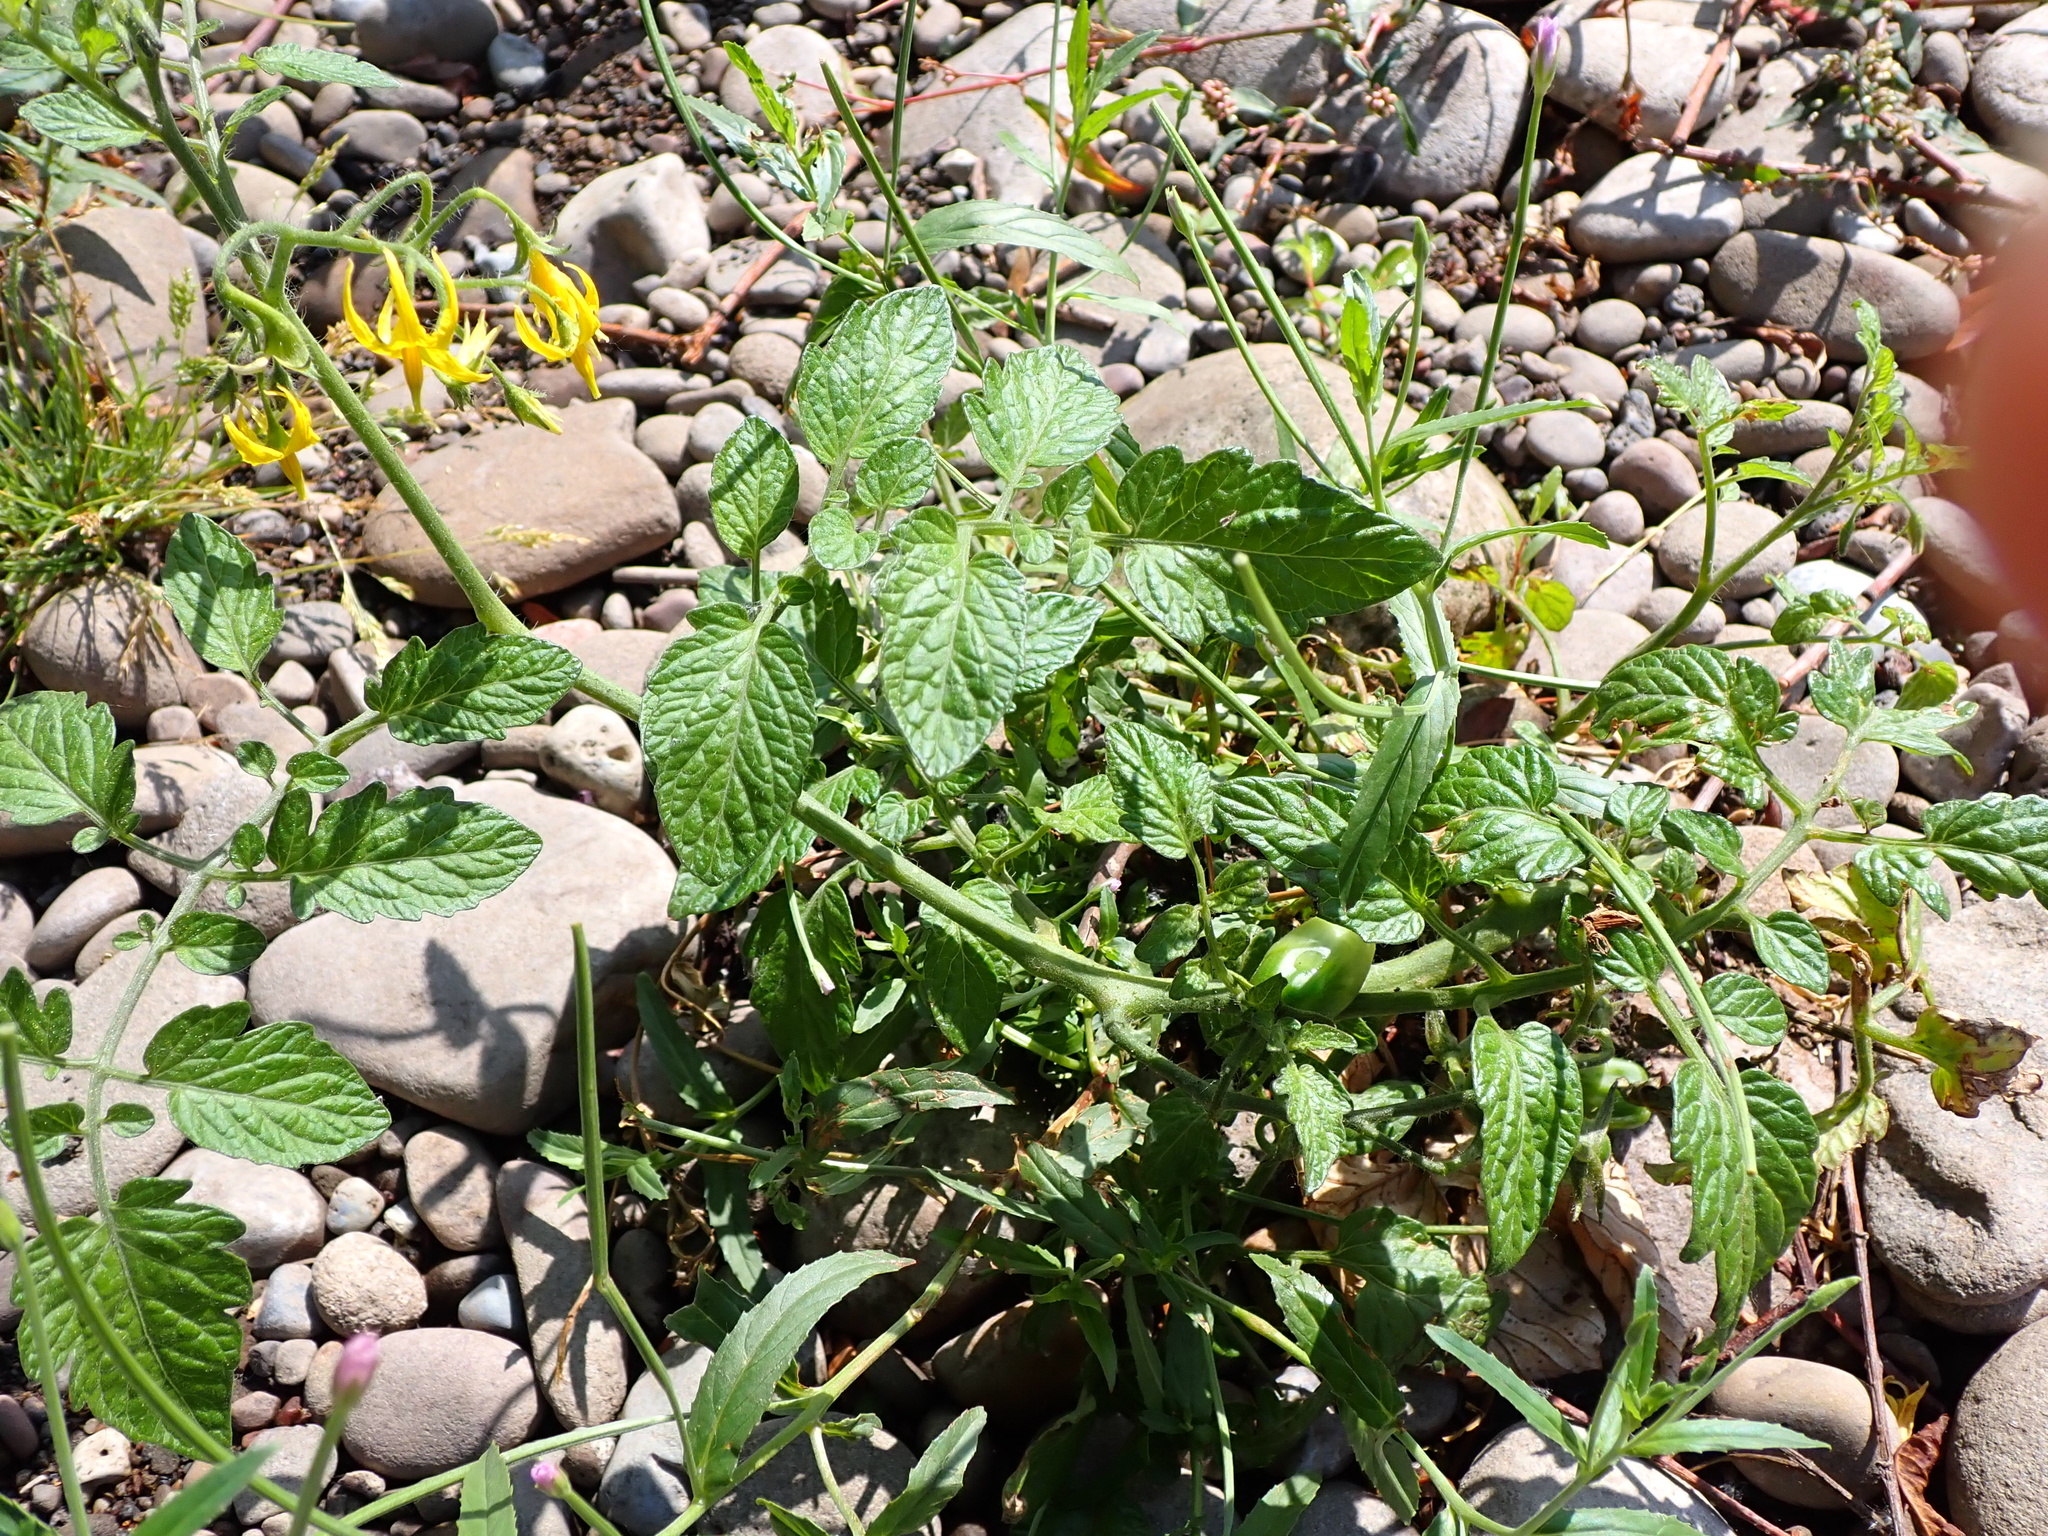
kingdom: Plantae
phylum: Tracheophyta
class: Magnoliopsida
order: Solanales
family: Solanaceae
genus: Solanum
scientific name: Solanum lycopersicum
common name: Garden tomato
